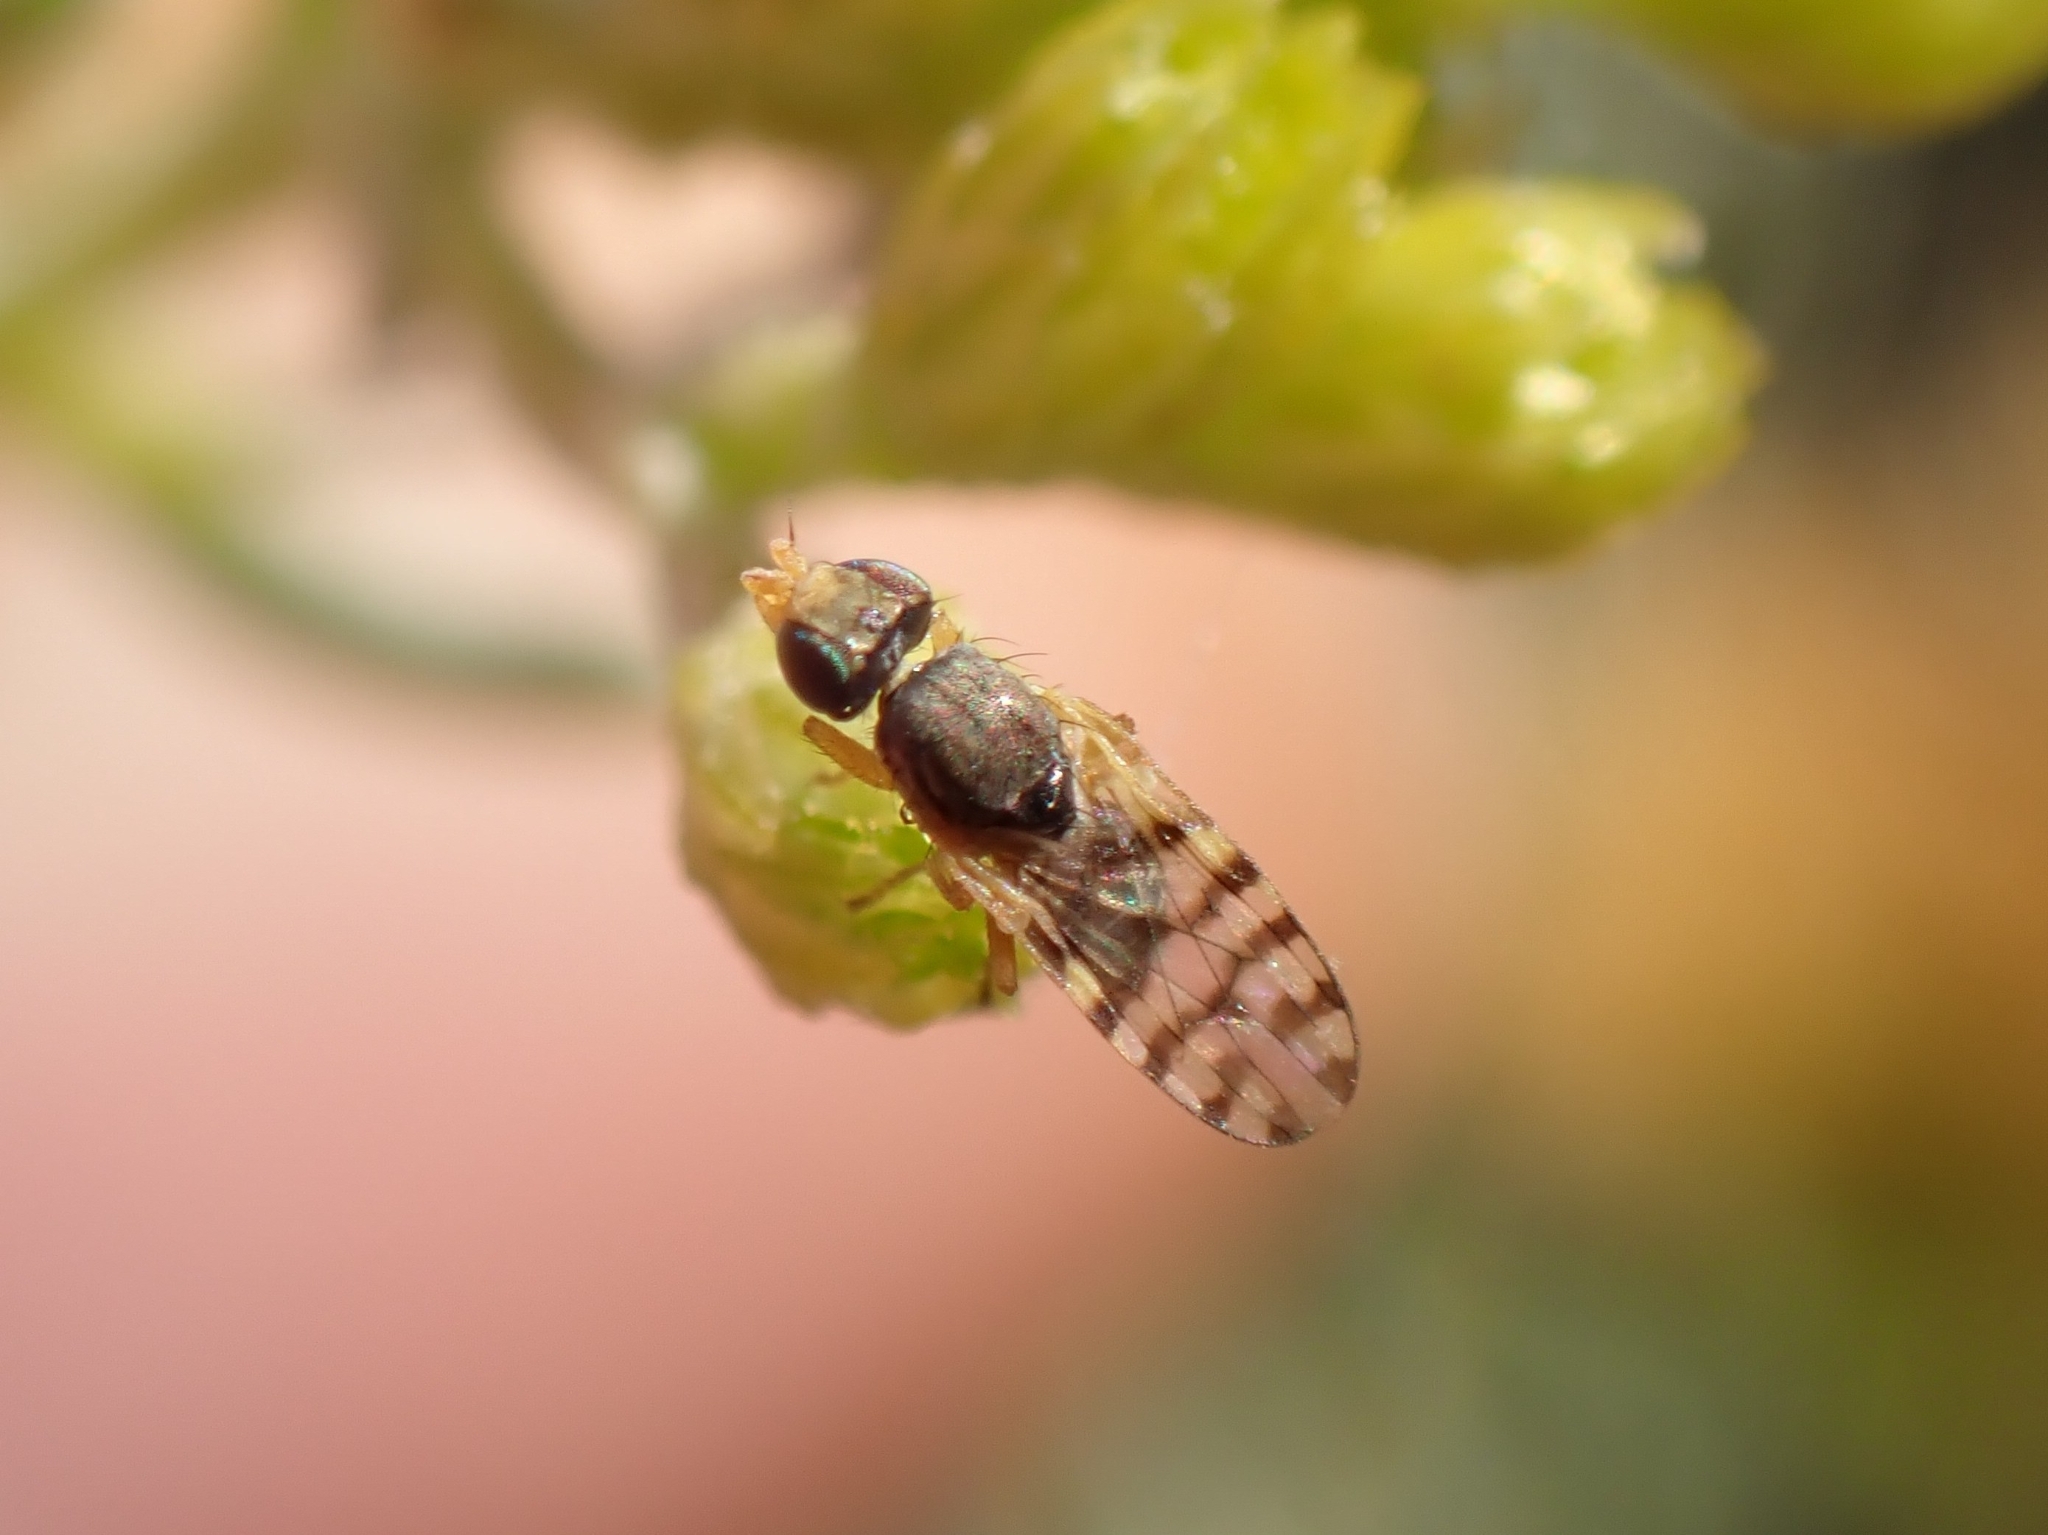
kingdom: Animalia
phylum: Arthropoda
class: Insecta
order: Diptera
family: Tephritidae
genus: Myopites
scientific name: Myopites nigrescens
